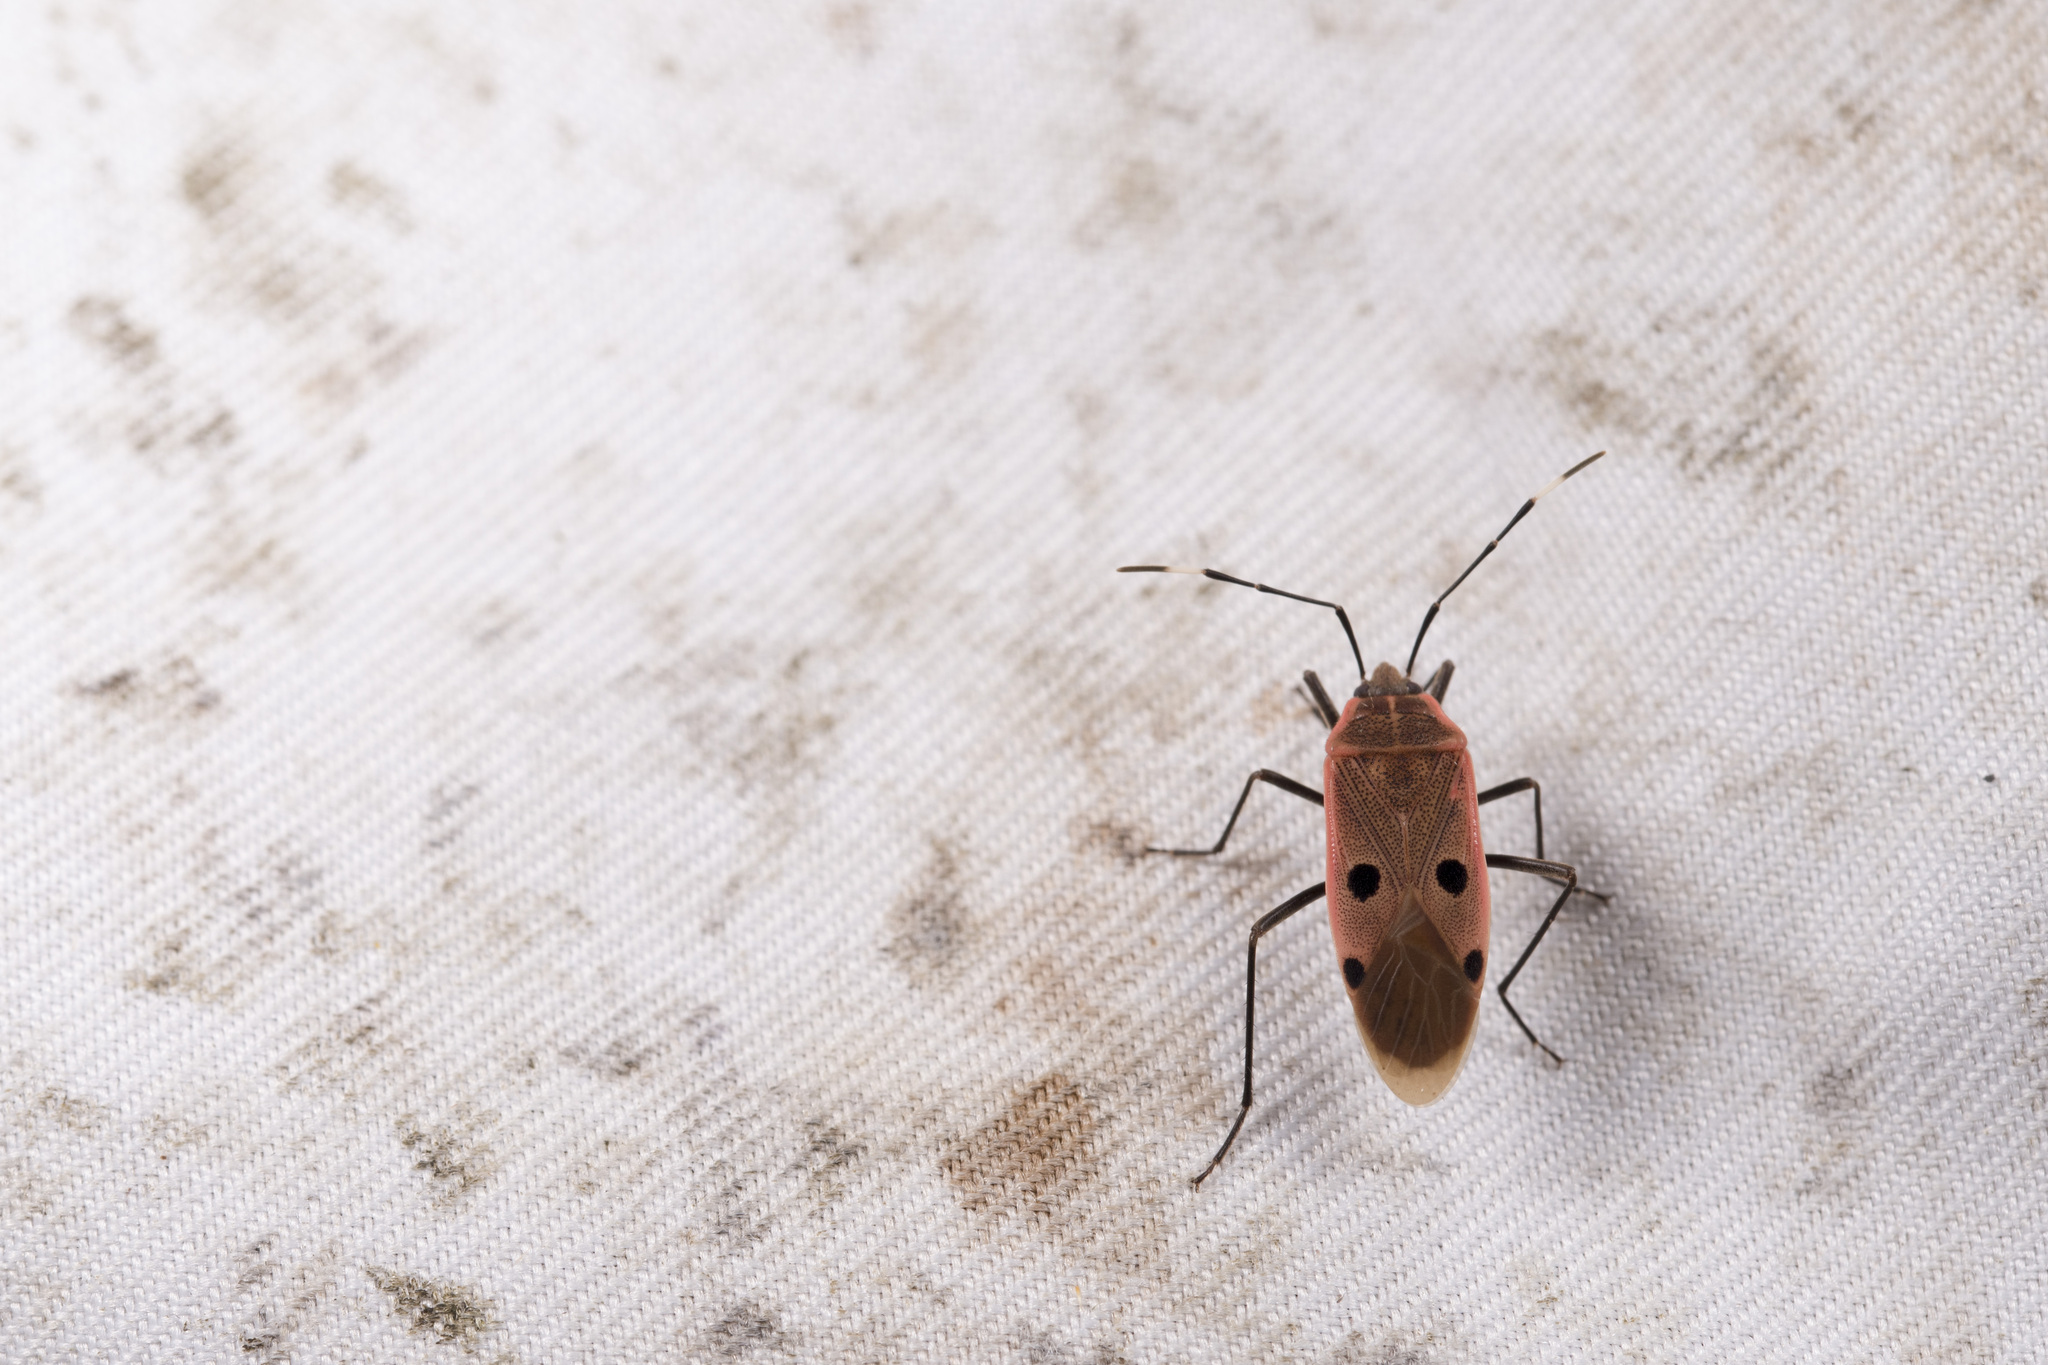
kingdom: Animalia
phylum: Arthropoda
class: Insecta
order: Hemiptera
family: Largidae
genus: Physopelta
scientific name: Physopelta quadriguttata
